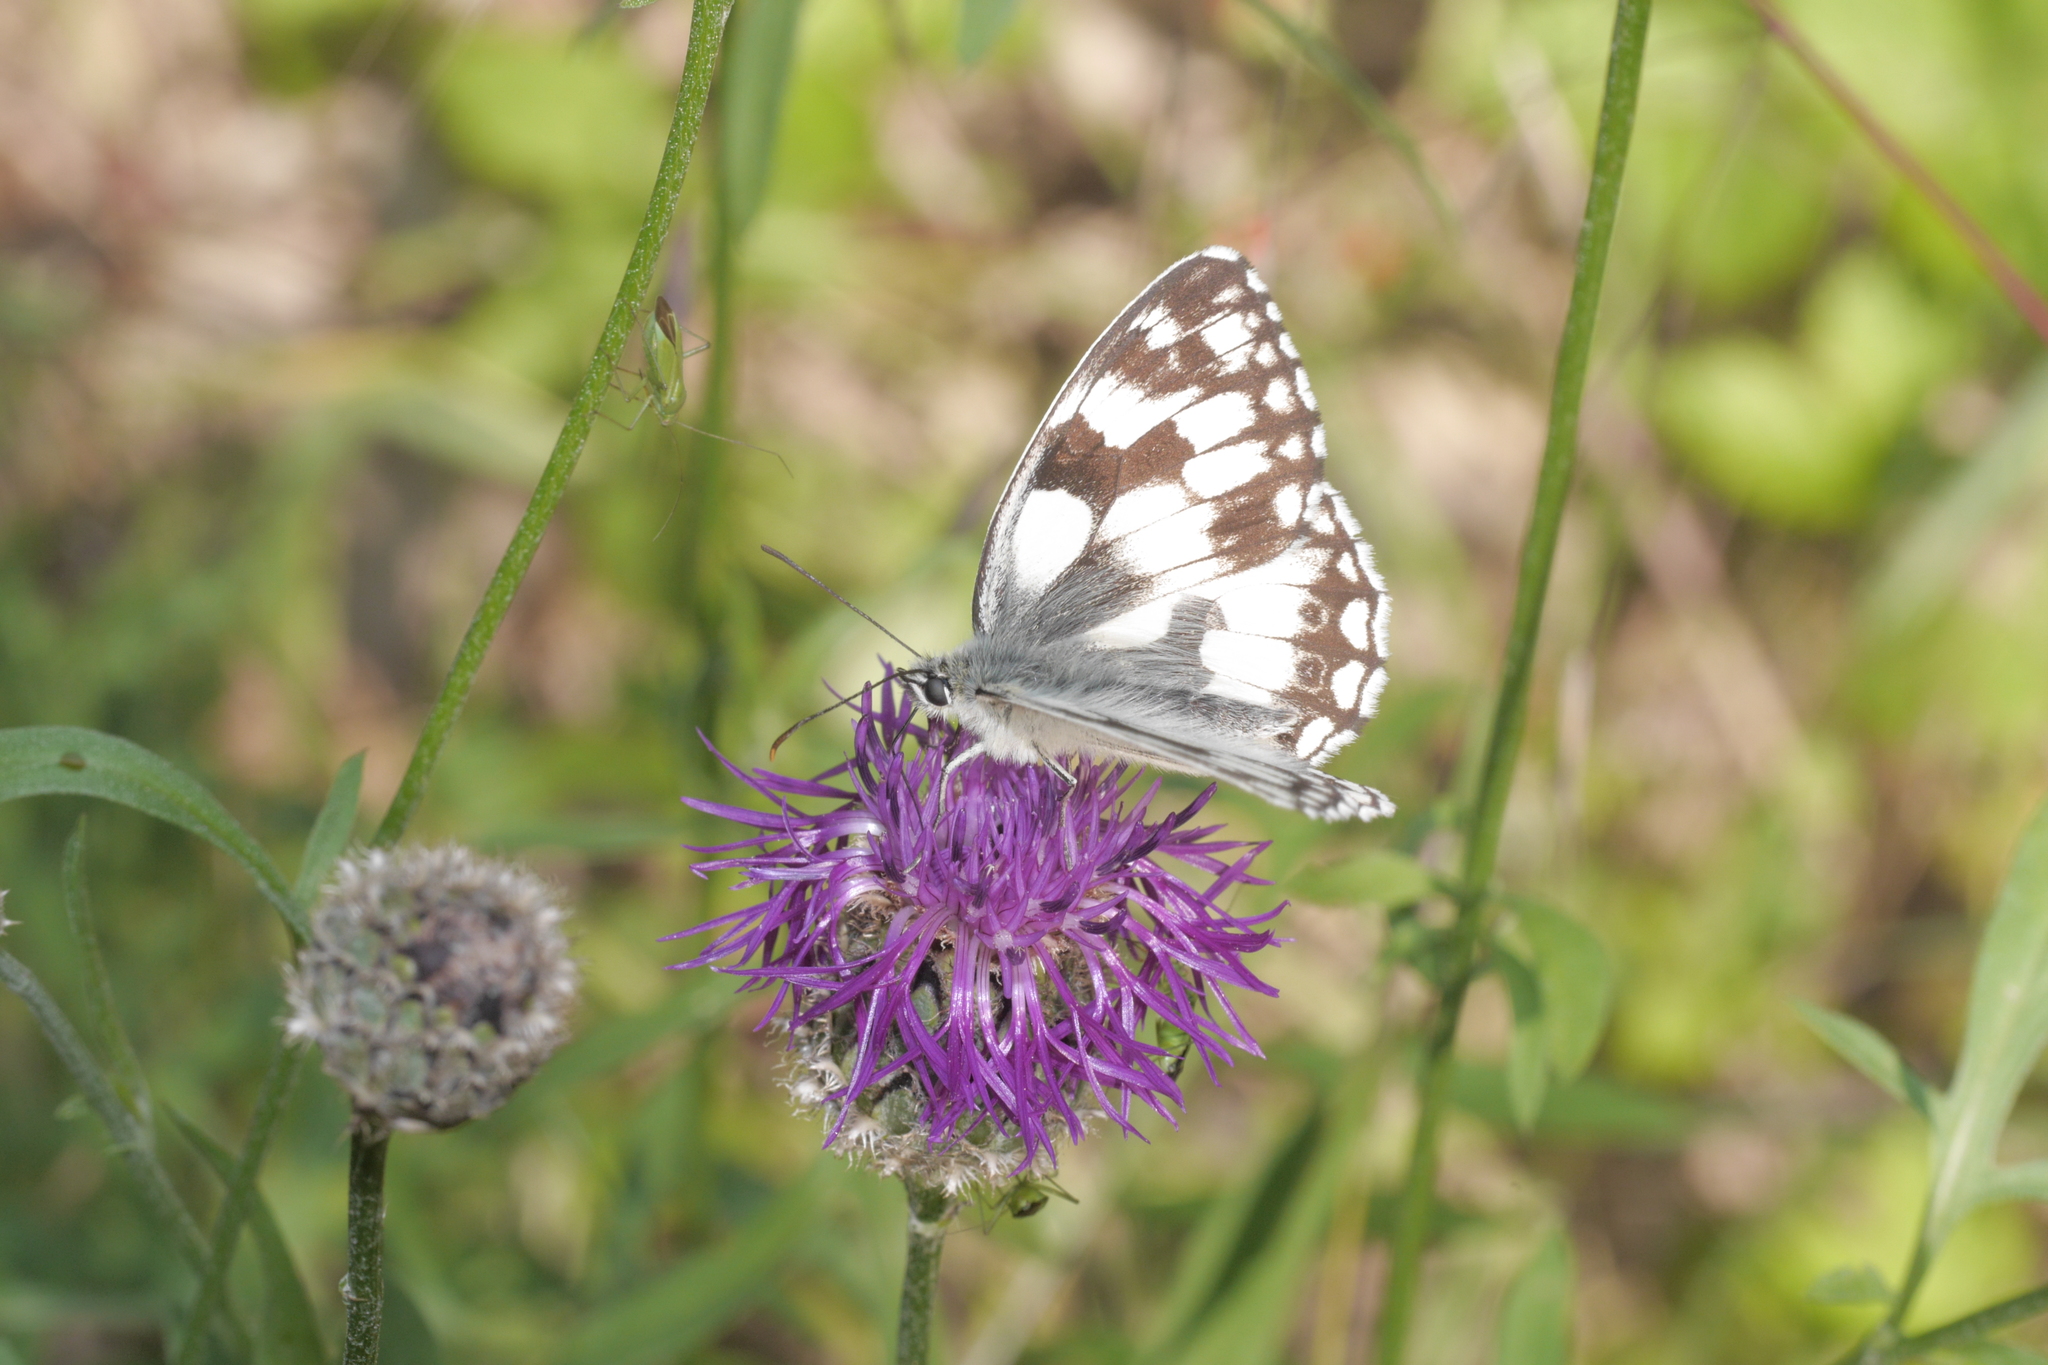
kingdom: Animalia
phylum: Arthropoda
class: Insecta
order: Lepidoptera
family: Nymphalidae
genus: Melanargia
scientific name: Melanargia galathea
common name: Marbled white
